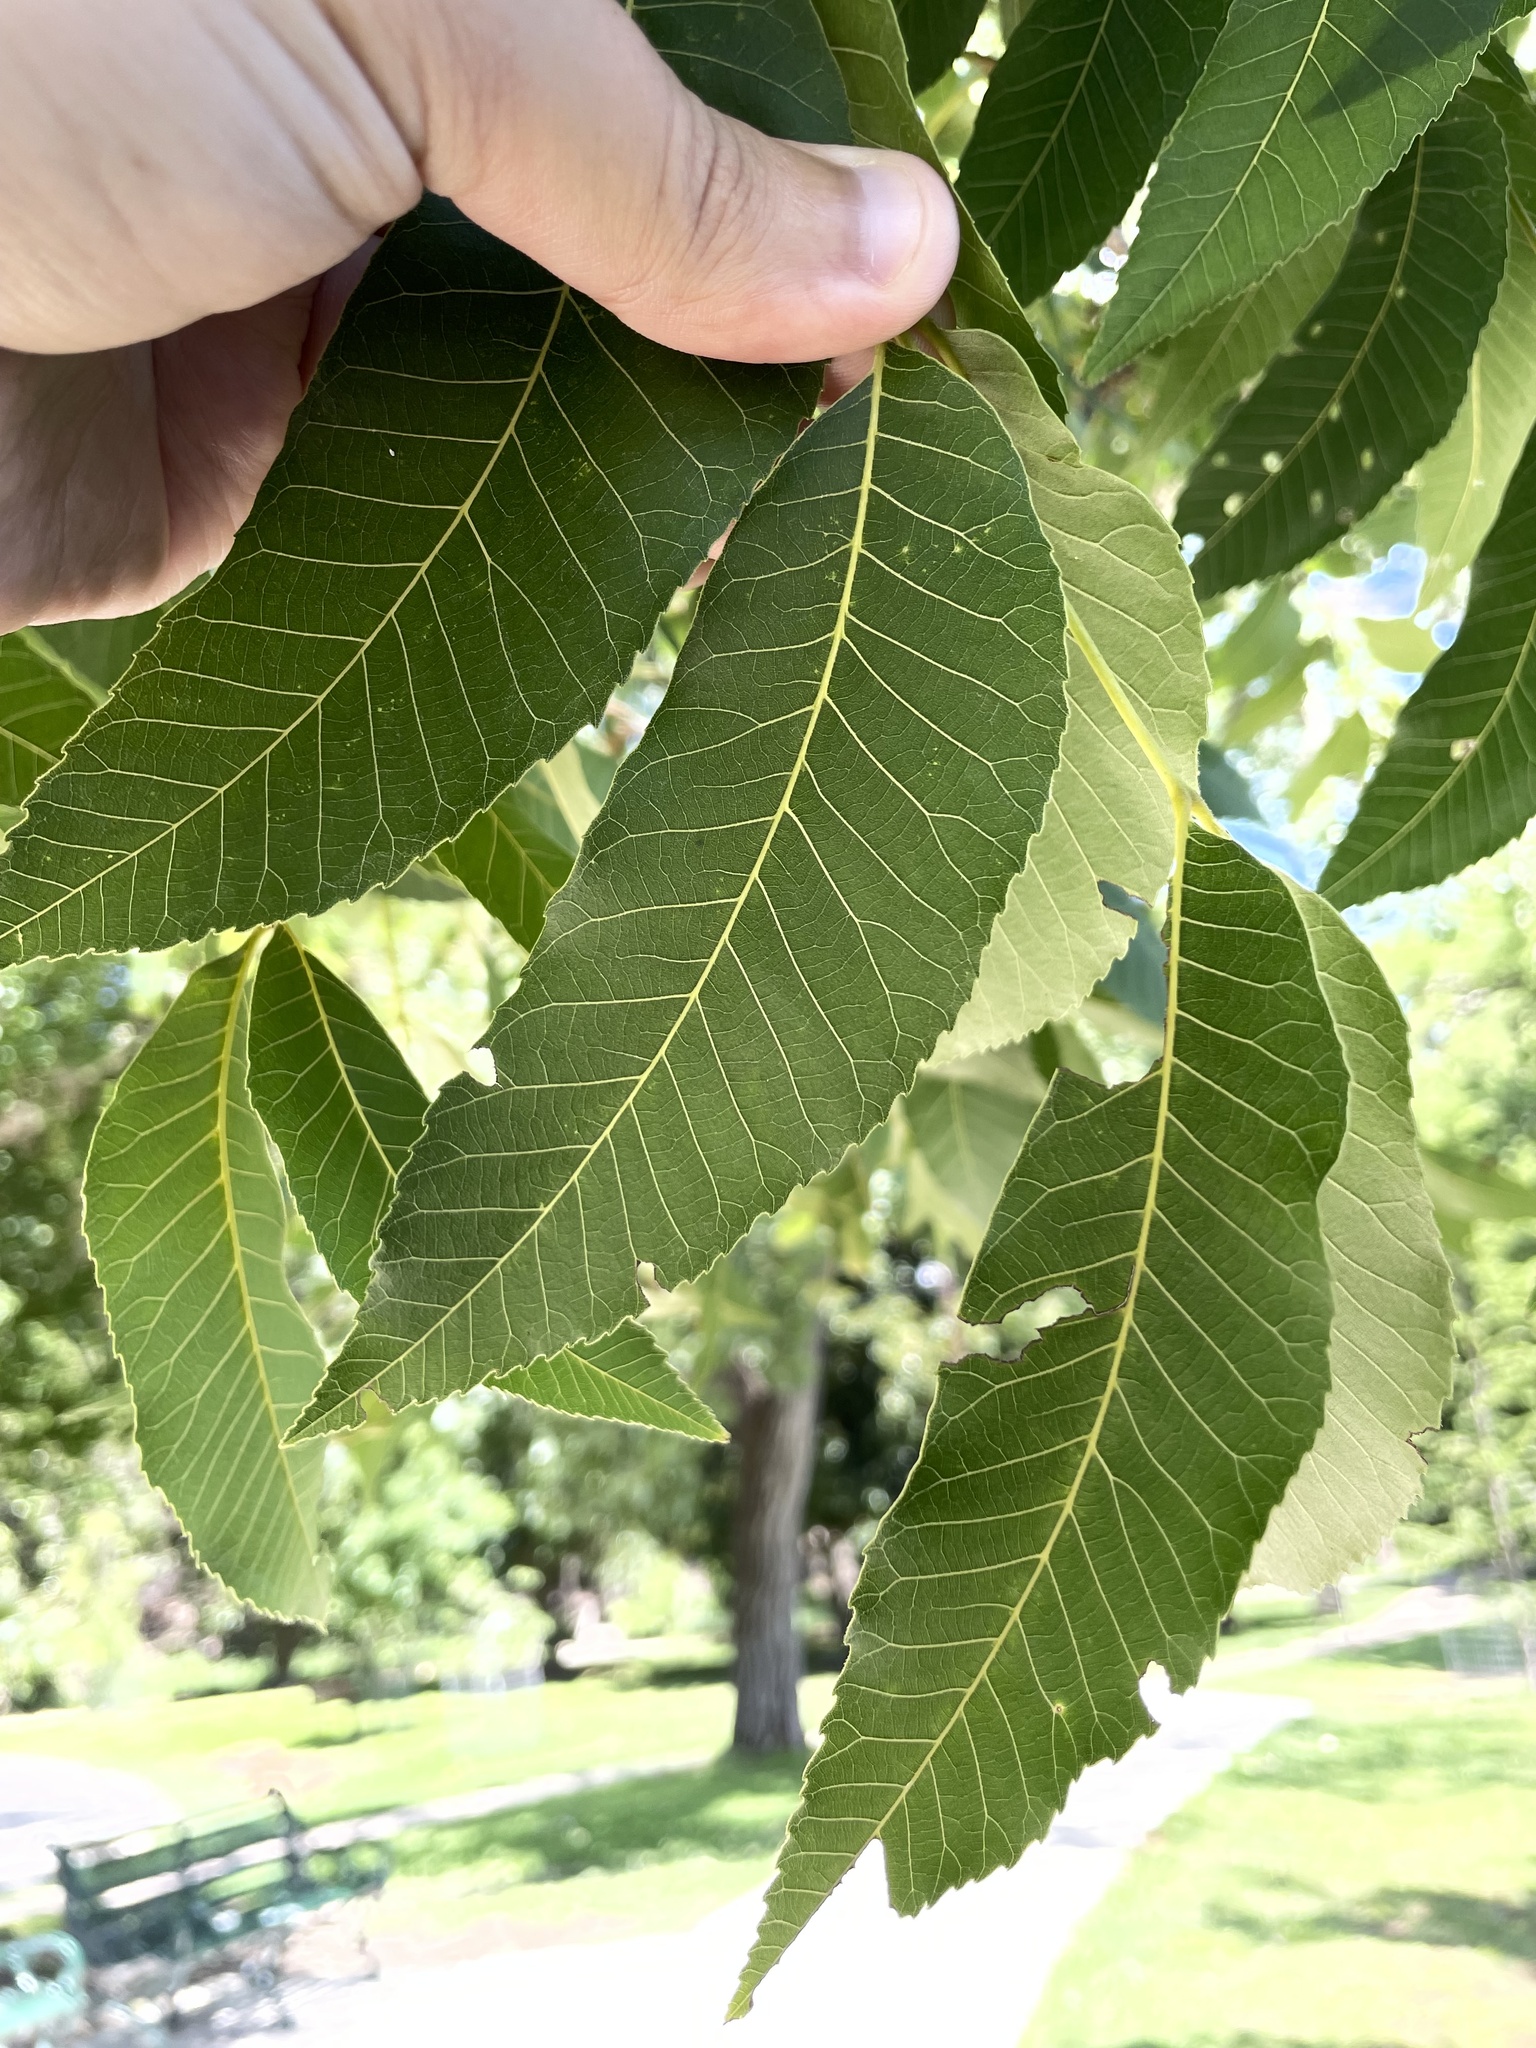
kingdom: Plantae
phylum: Tracheophyta
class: Magnoliopsida
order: Fagales
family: Juglandaceae
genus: Carya
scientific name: Carya illinoinensis
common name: Pecan
